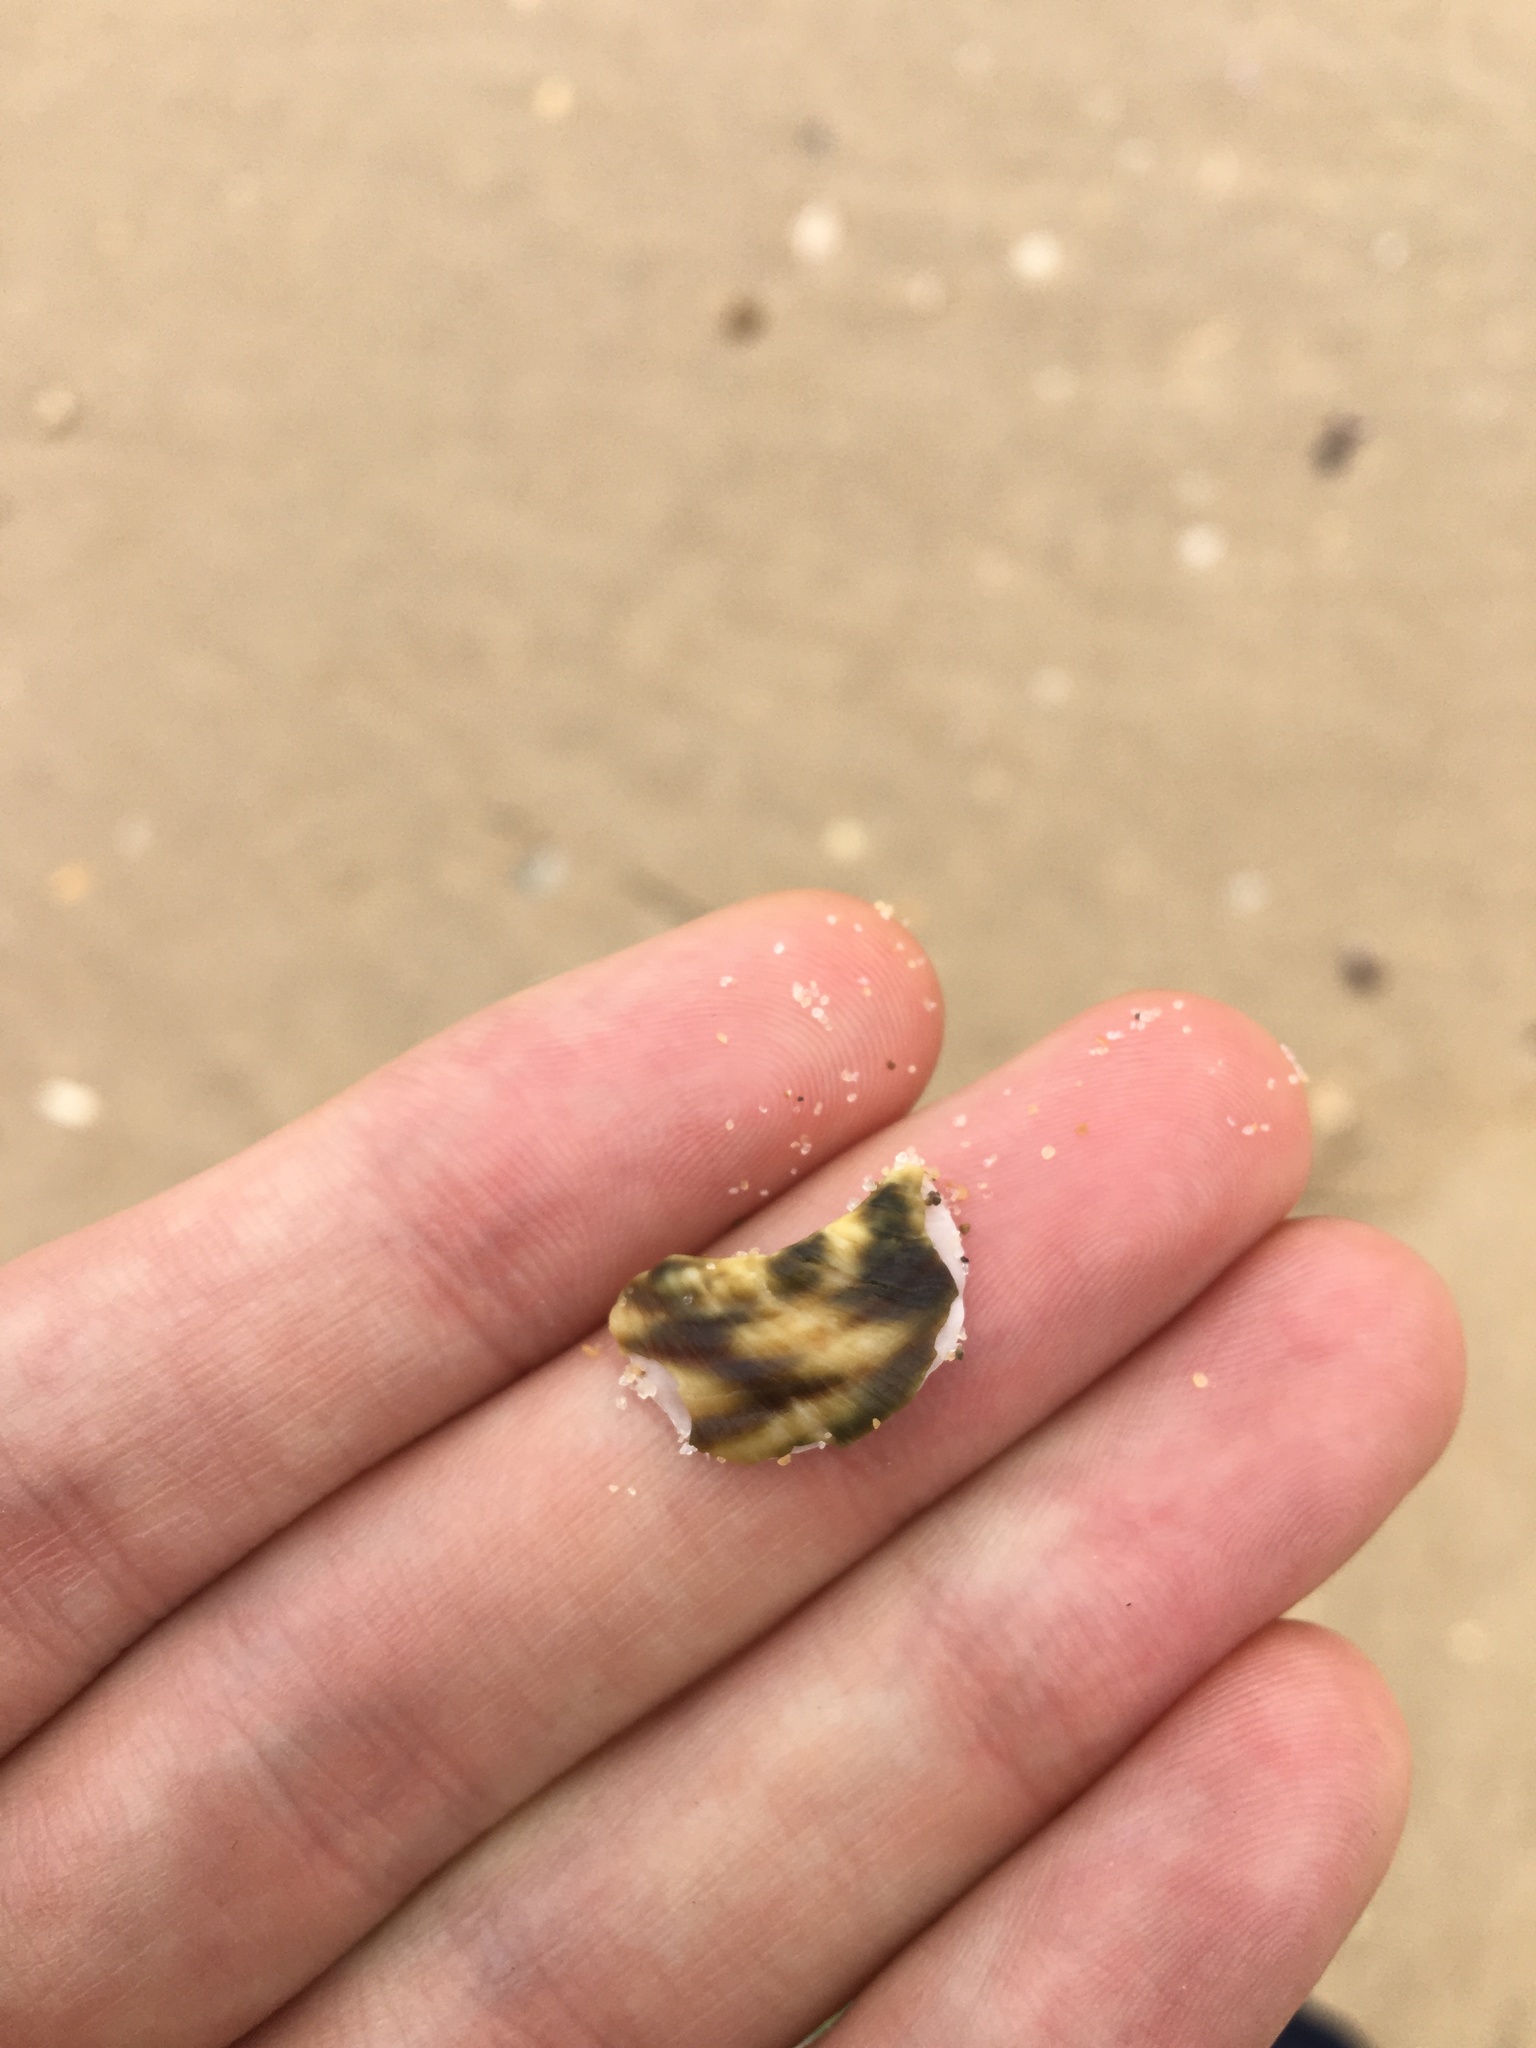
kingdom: Animalia
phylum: Mollusca
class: Gastropoda
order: Trochida
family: Turbinidae
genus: Lunella
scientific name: Lunella undulata
